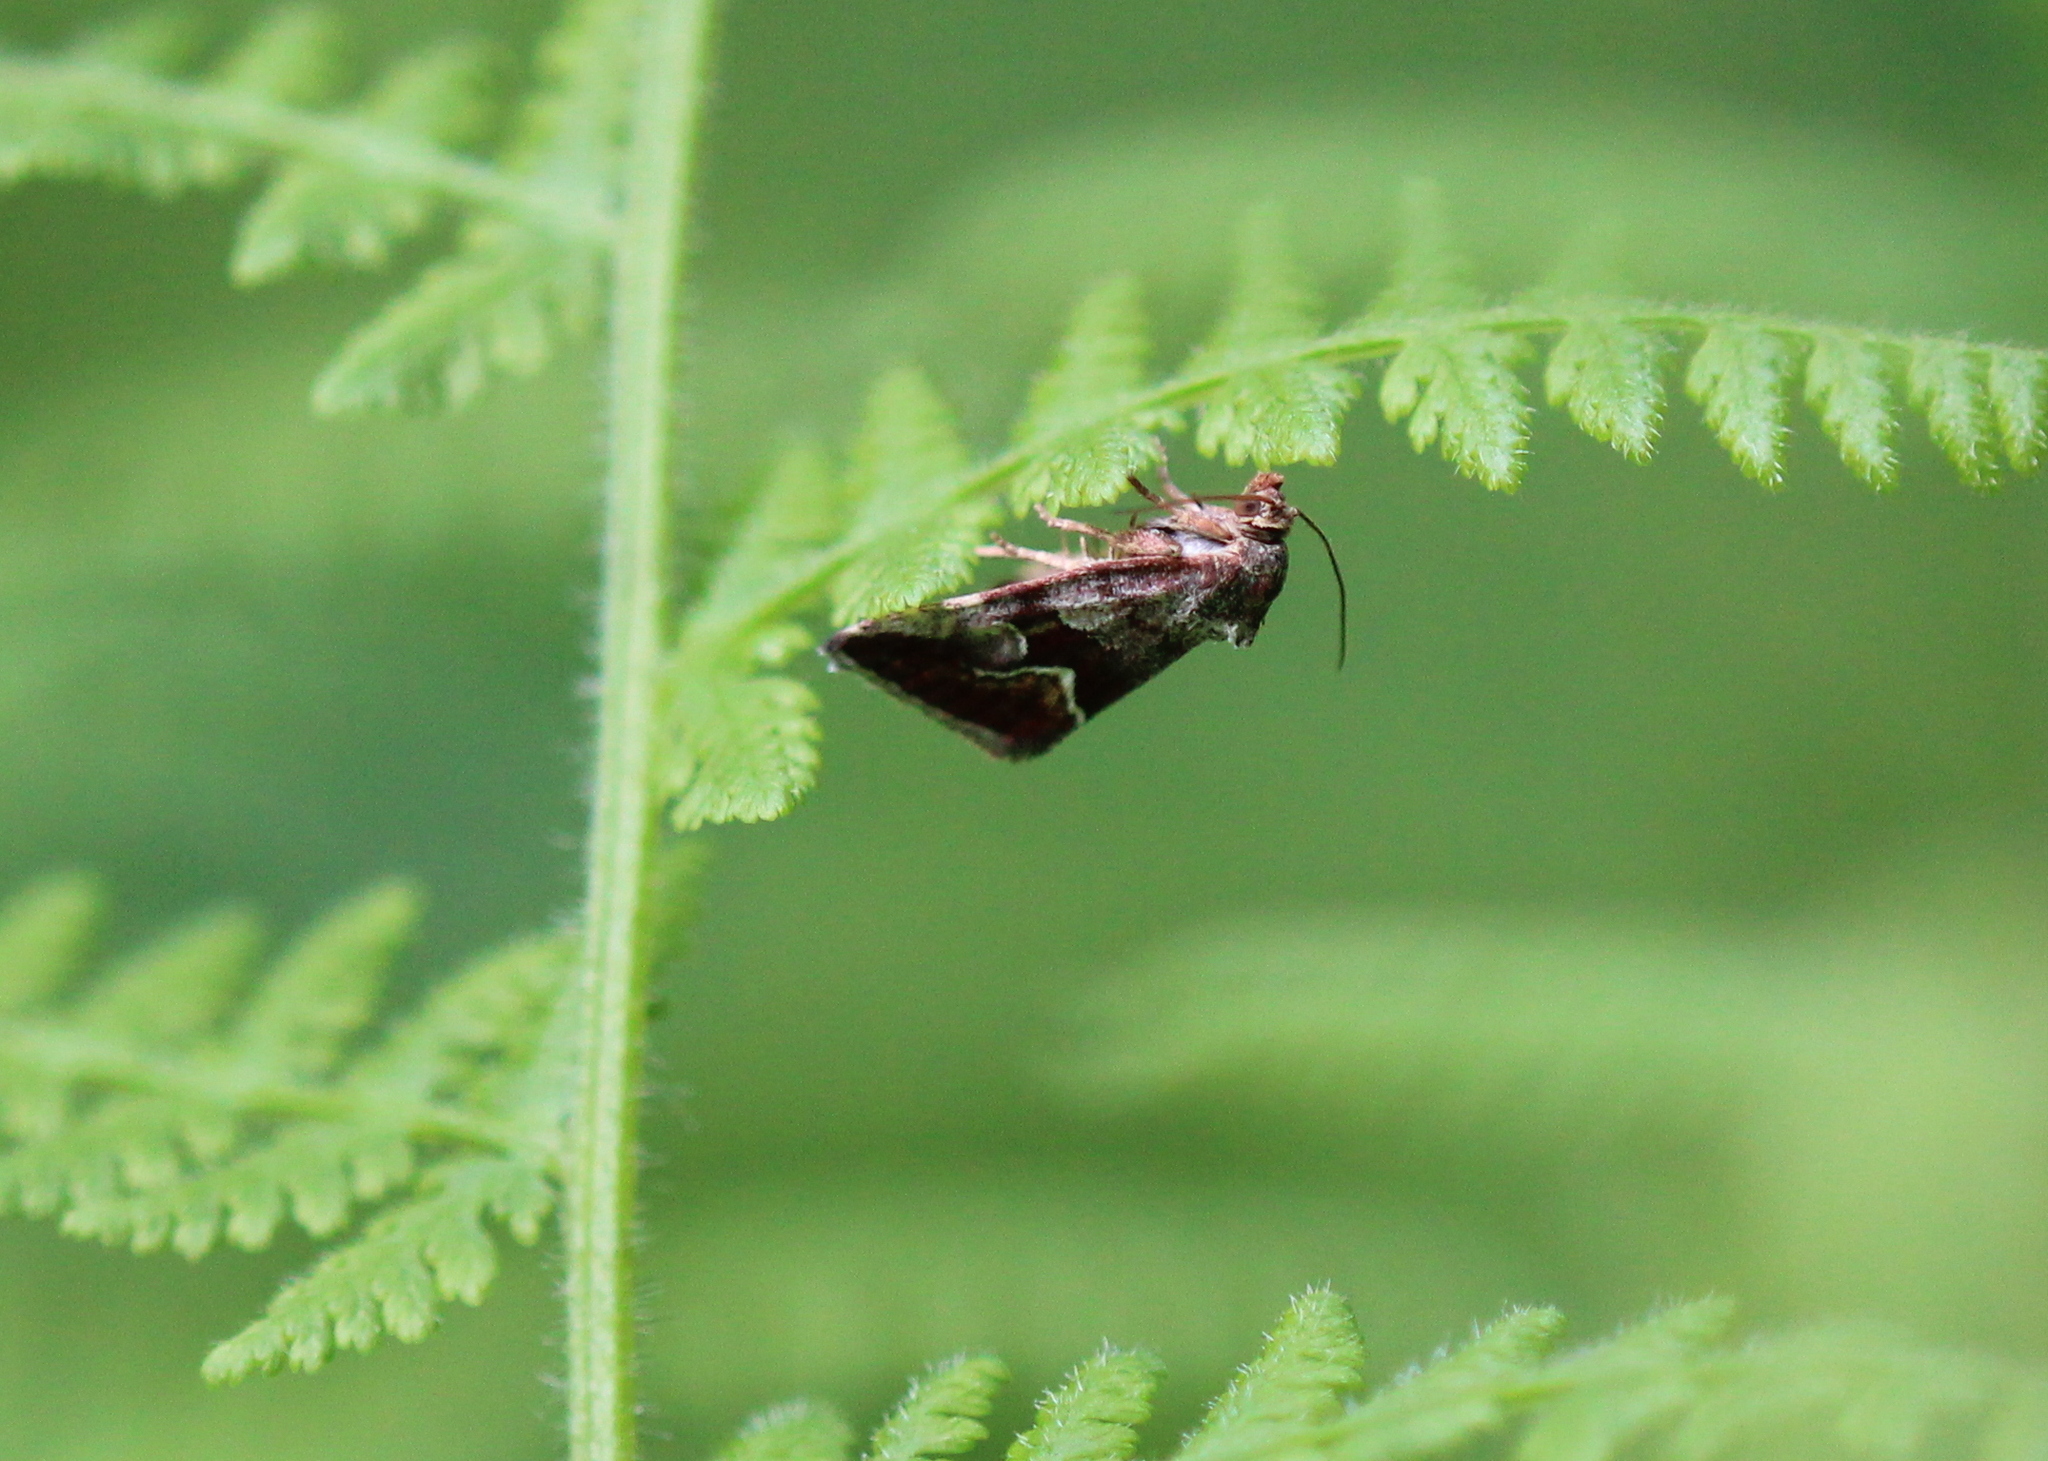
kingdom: Animalia
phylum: Arthropoda
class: Insecta
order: Lepidoptera
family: Noctuidae
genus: Deltote
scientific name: Deltote bellicula
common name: Bog glyph
